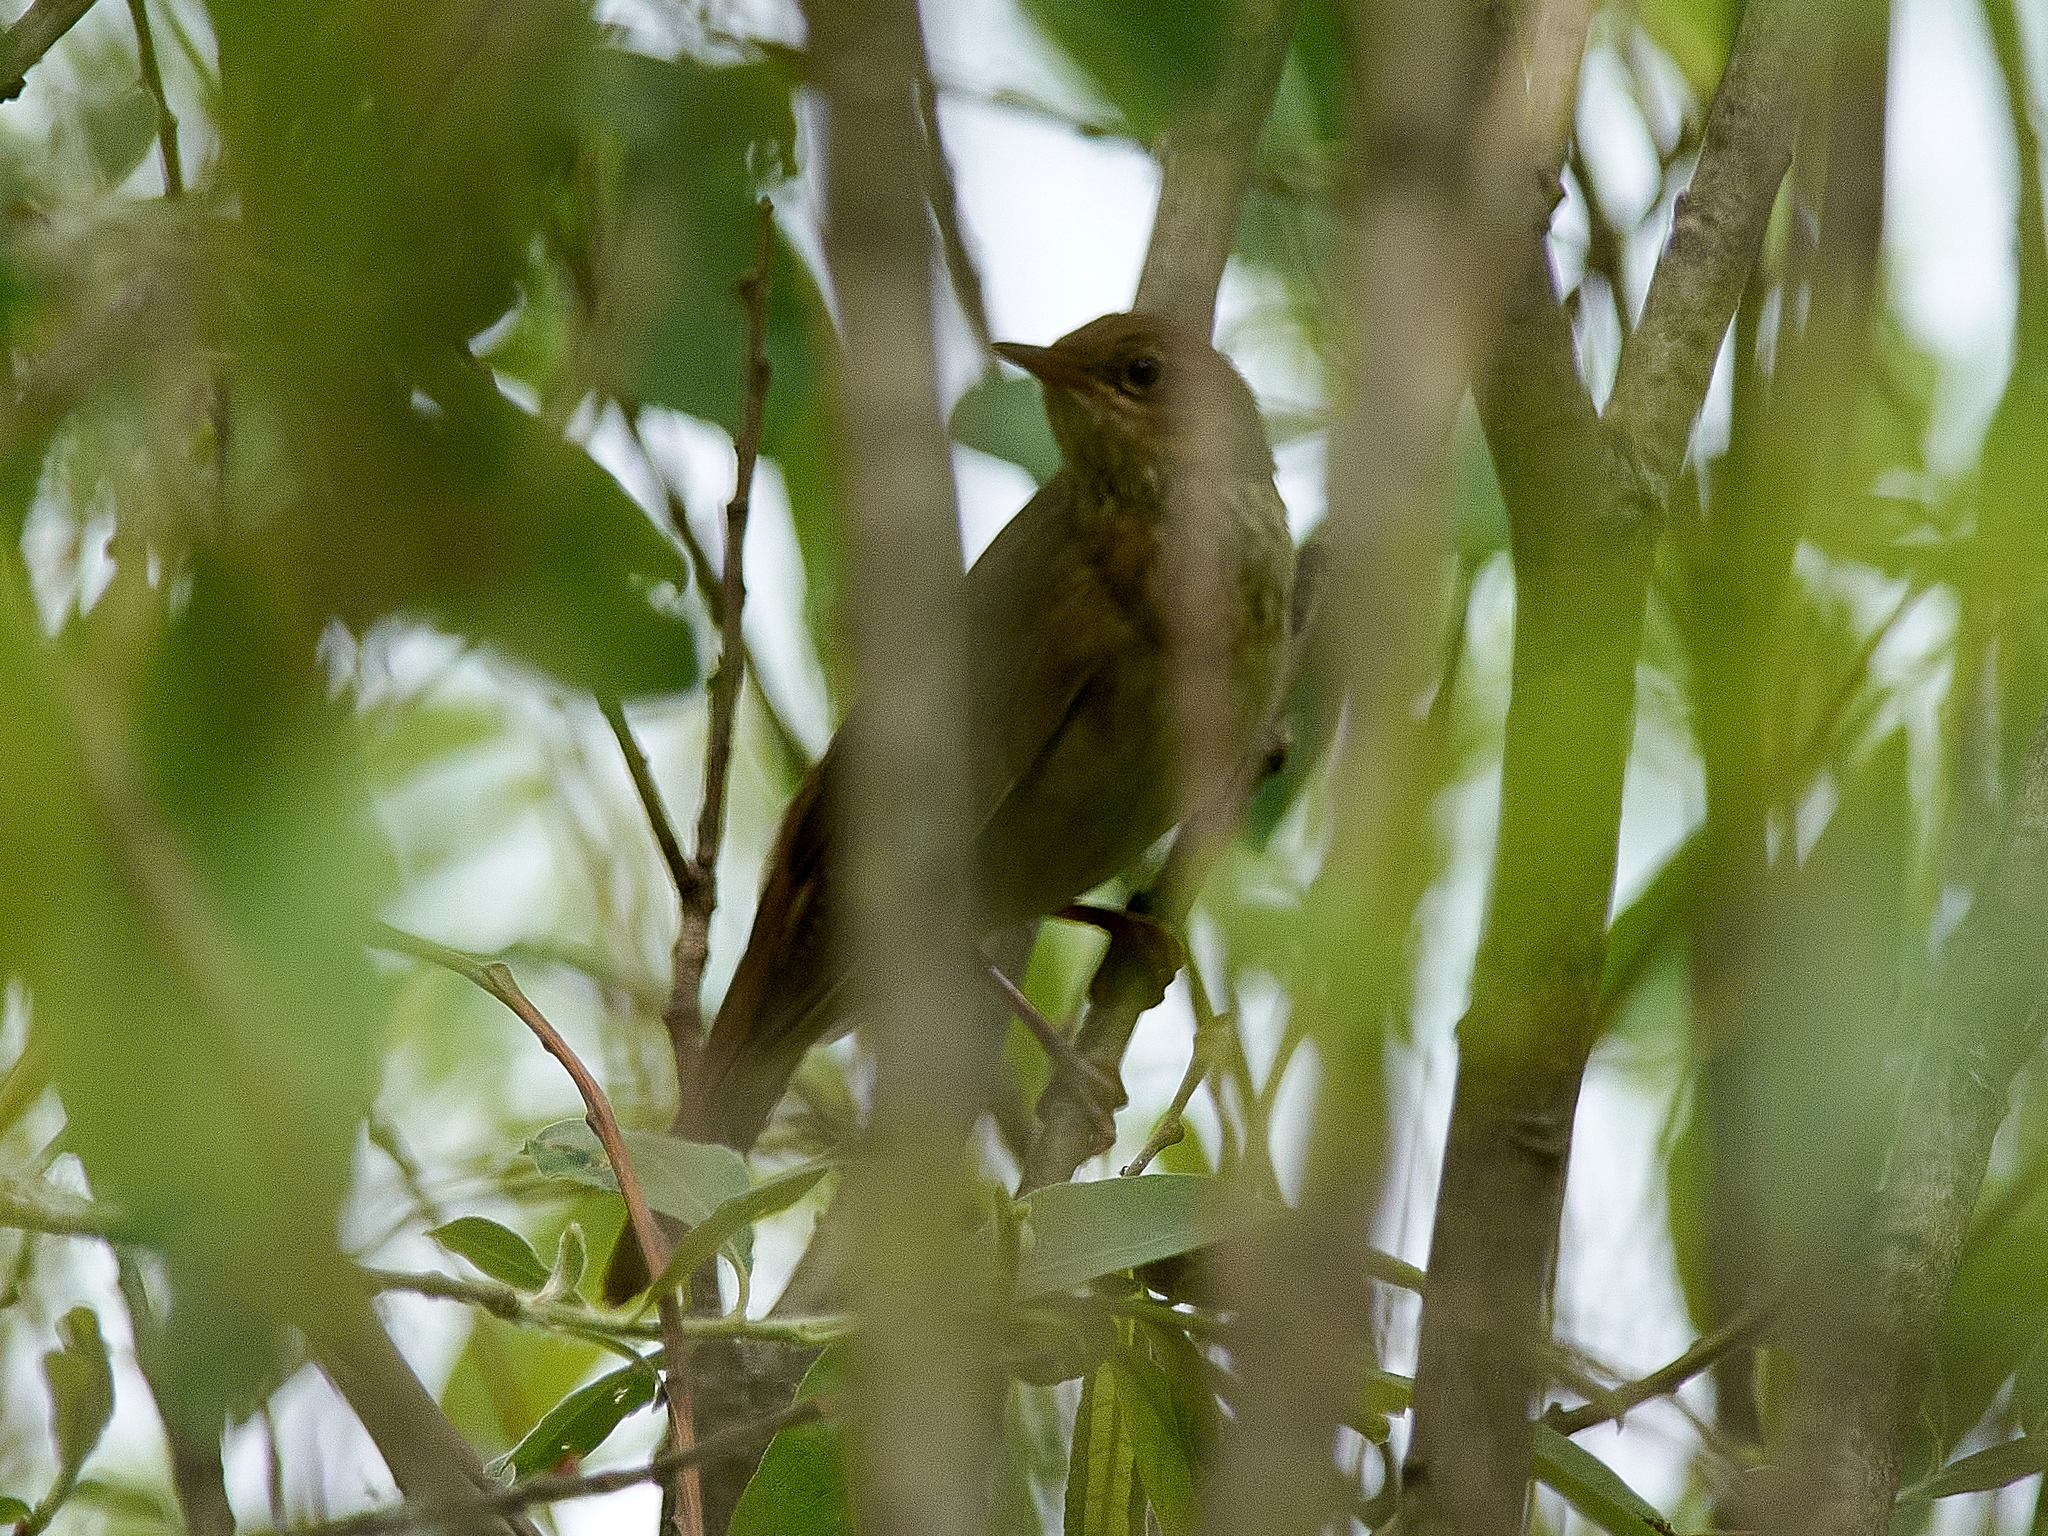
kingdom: Animalia
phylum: Chordata
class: Aves
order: Passeriformes
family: Locustellidae
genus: Locustella
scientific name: Locustella fluviatilis
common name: River warbler
